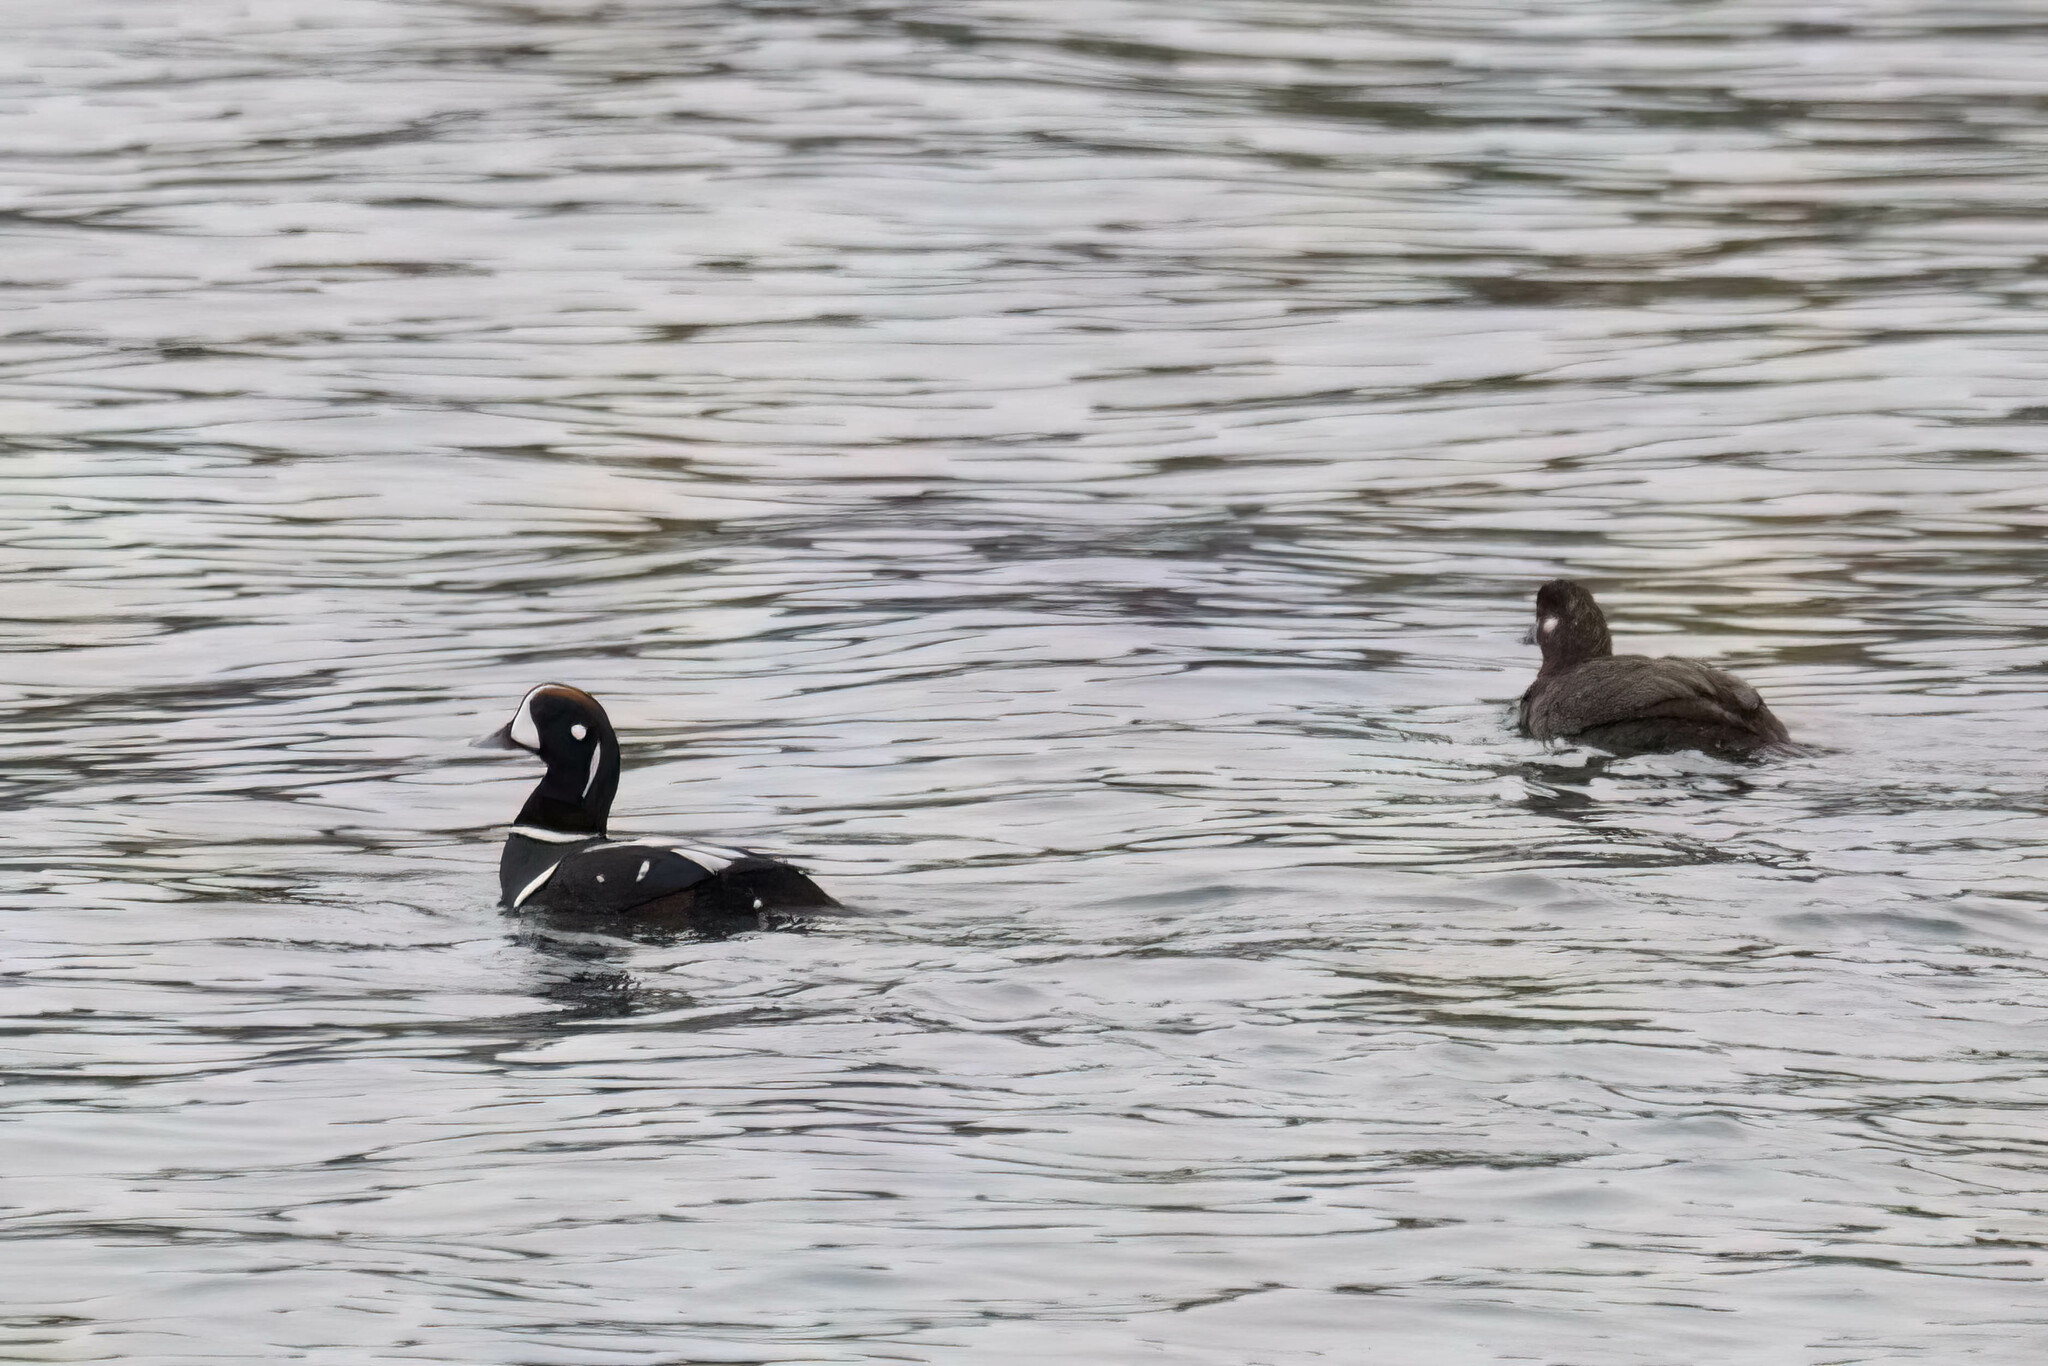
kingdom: Animalia
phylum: Chordata
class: Aves
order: Anseriformes
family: Anatidae
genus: Histrionicus
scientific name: Histrionicus histrionicus
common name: Harlequin duck
